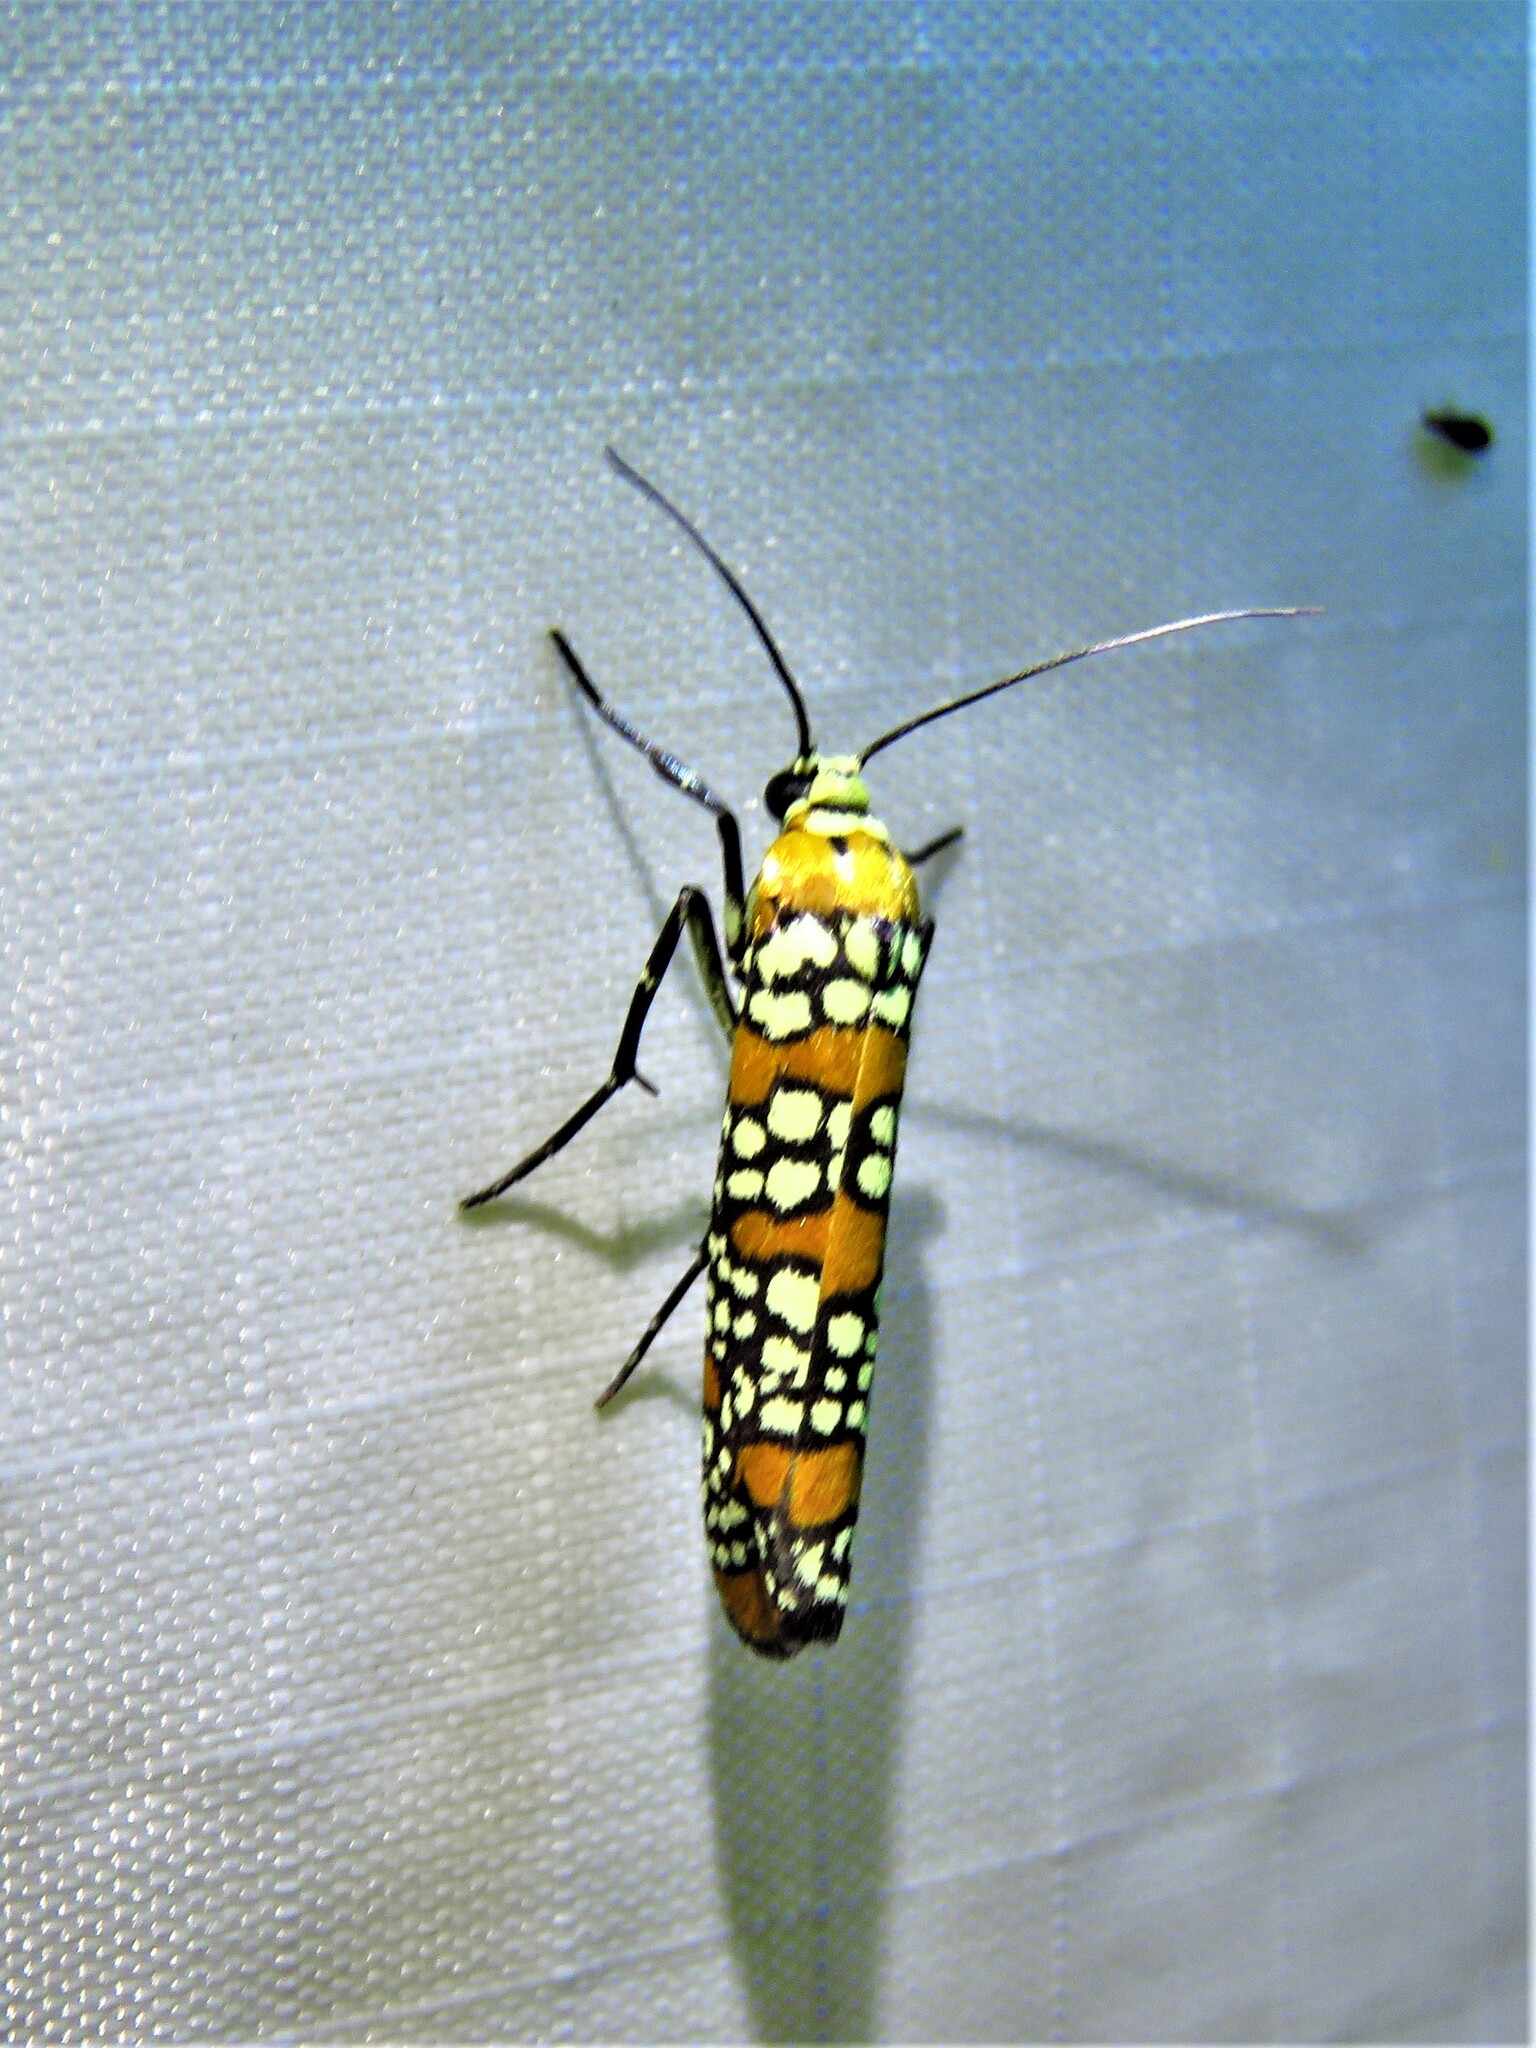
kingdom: Animalia
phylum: Arthropoda
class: Insecta
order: Lepidoptera
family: Attevidae
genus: Atteva
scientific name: Atteva punctella
